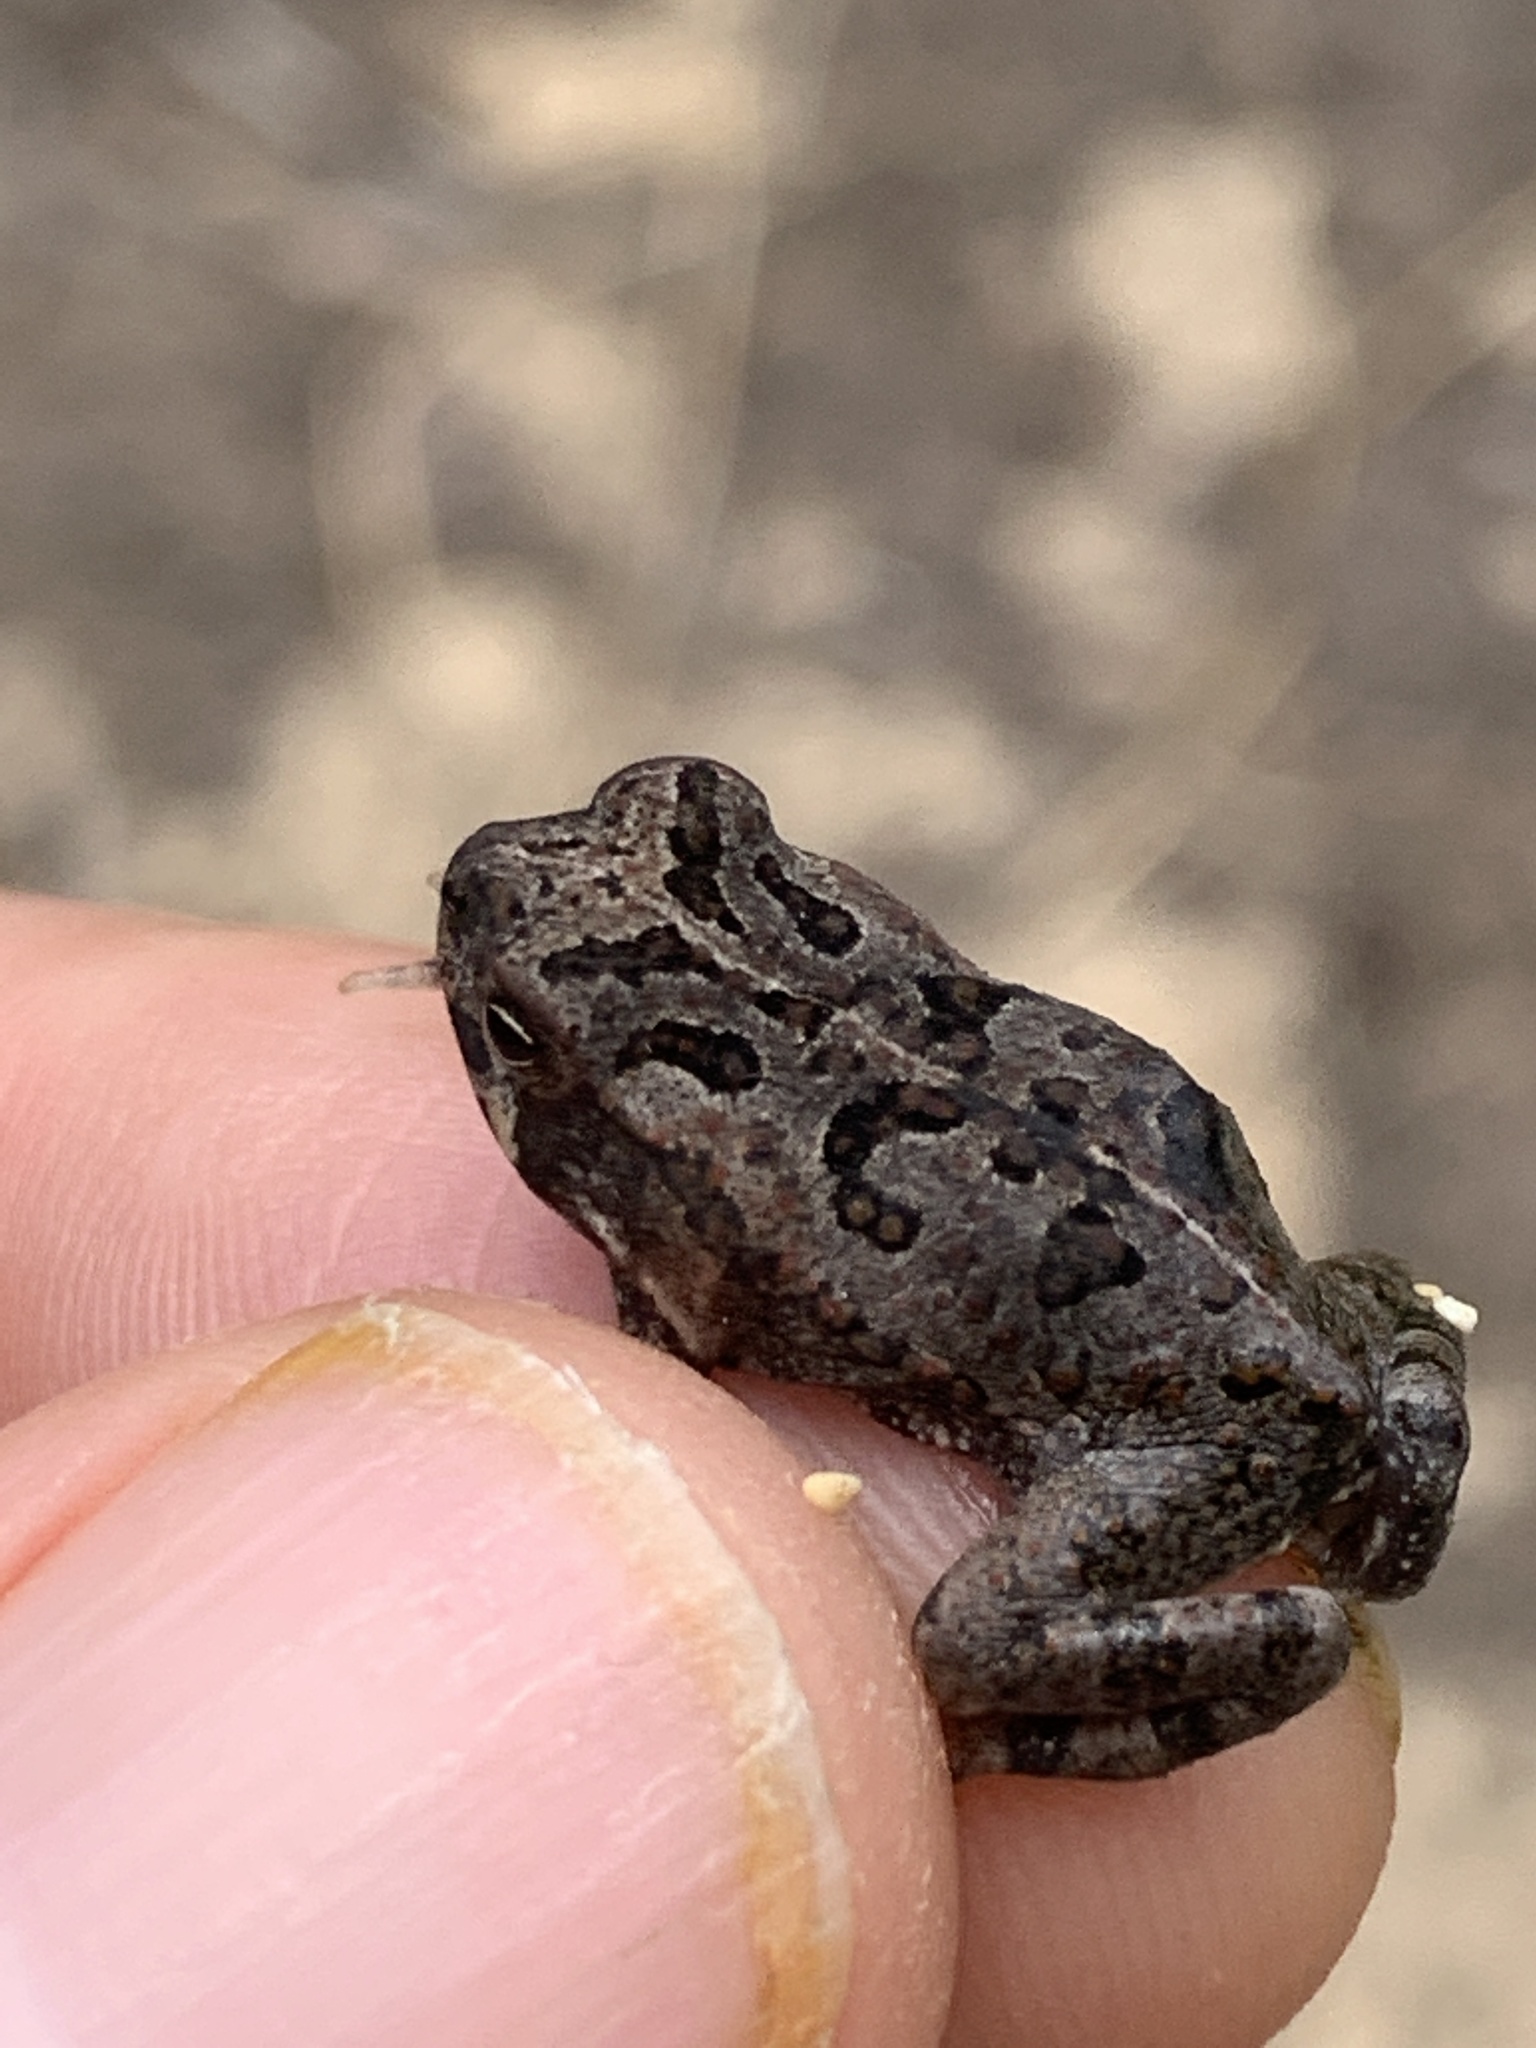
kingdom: Animalia
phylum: Chordata
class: Amphibia
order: Anura
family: Bufonidae
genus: Rhinella
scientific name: Rhinella marina
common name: Cane toad
